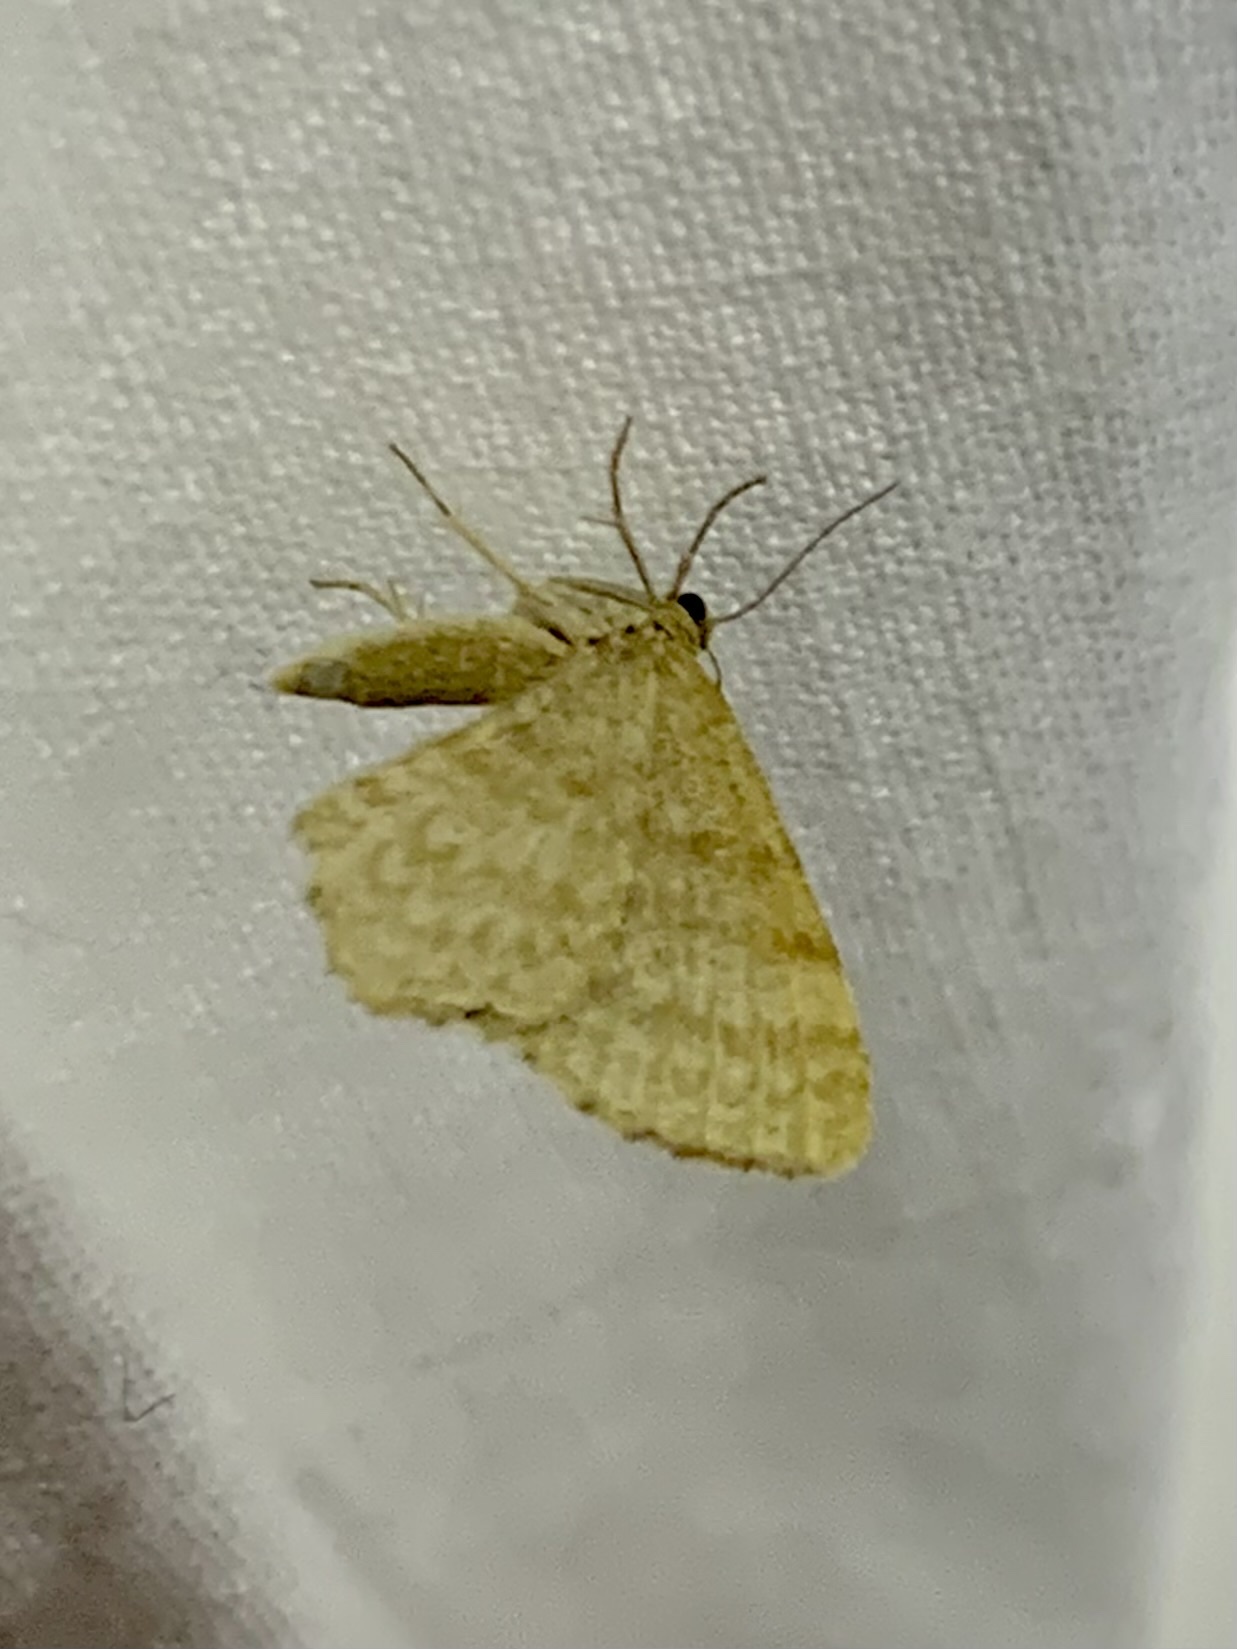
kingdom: Animalia
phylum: Arthropoda
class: Insecta
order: Lepidoptera
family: Geometridae
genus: Euchoeca
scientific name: Euchoeca nebulata
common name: Dingy shell
